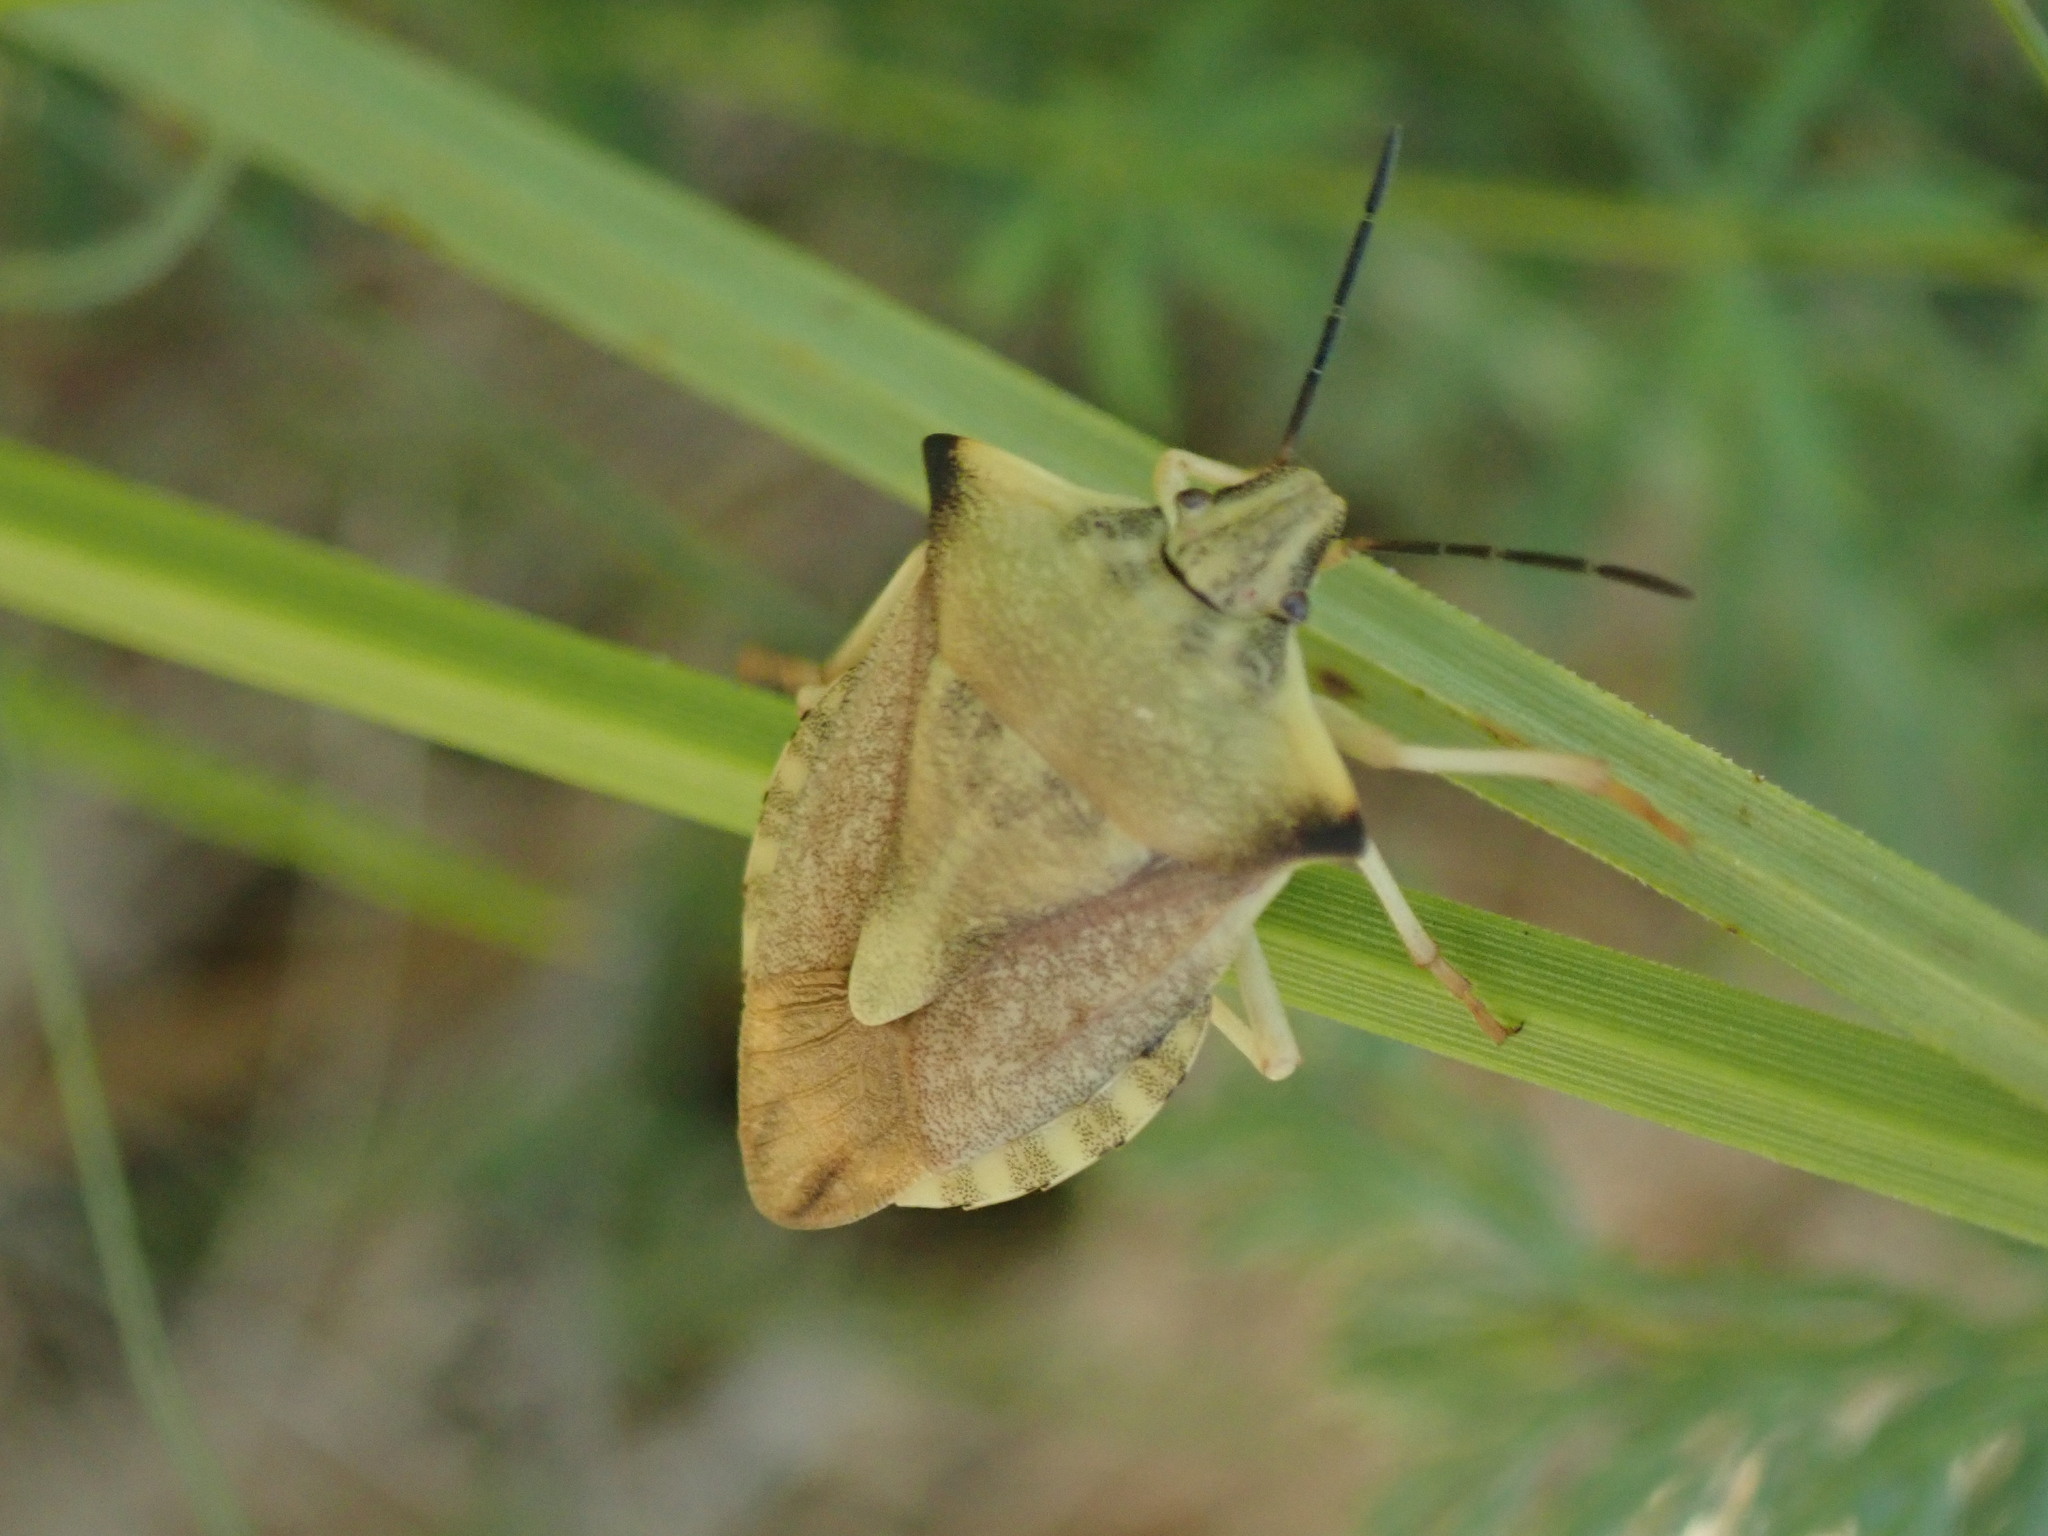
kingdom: Animalia
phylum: Arthropoda
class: Insecta
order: Hemiptera
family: Pentatomidae
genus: Carpocoris
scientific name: Carpocoris fuscispinus
